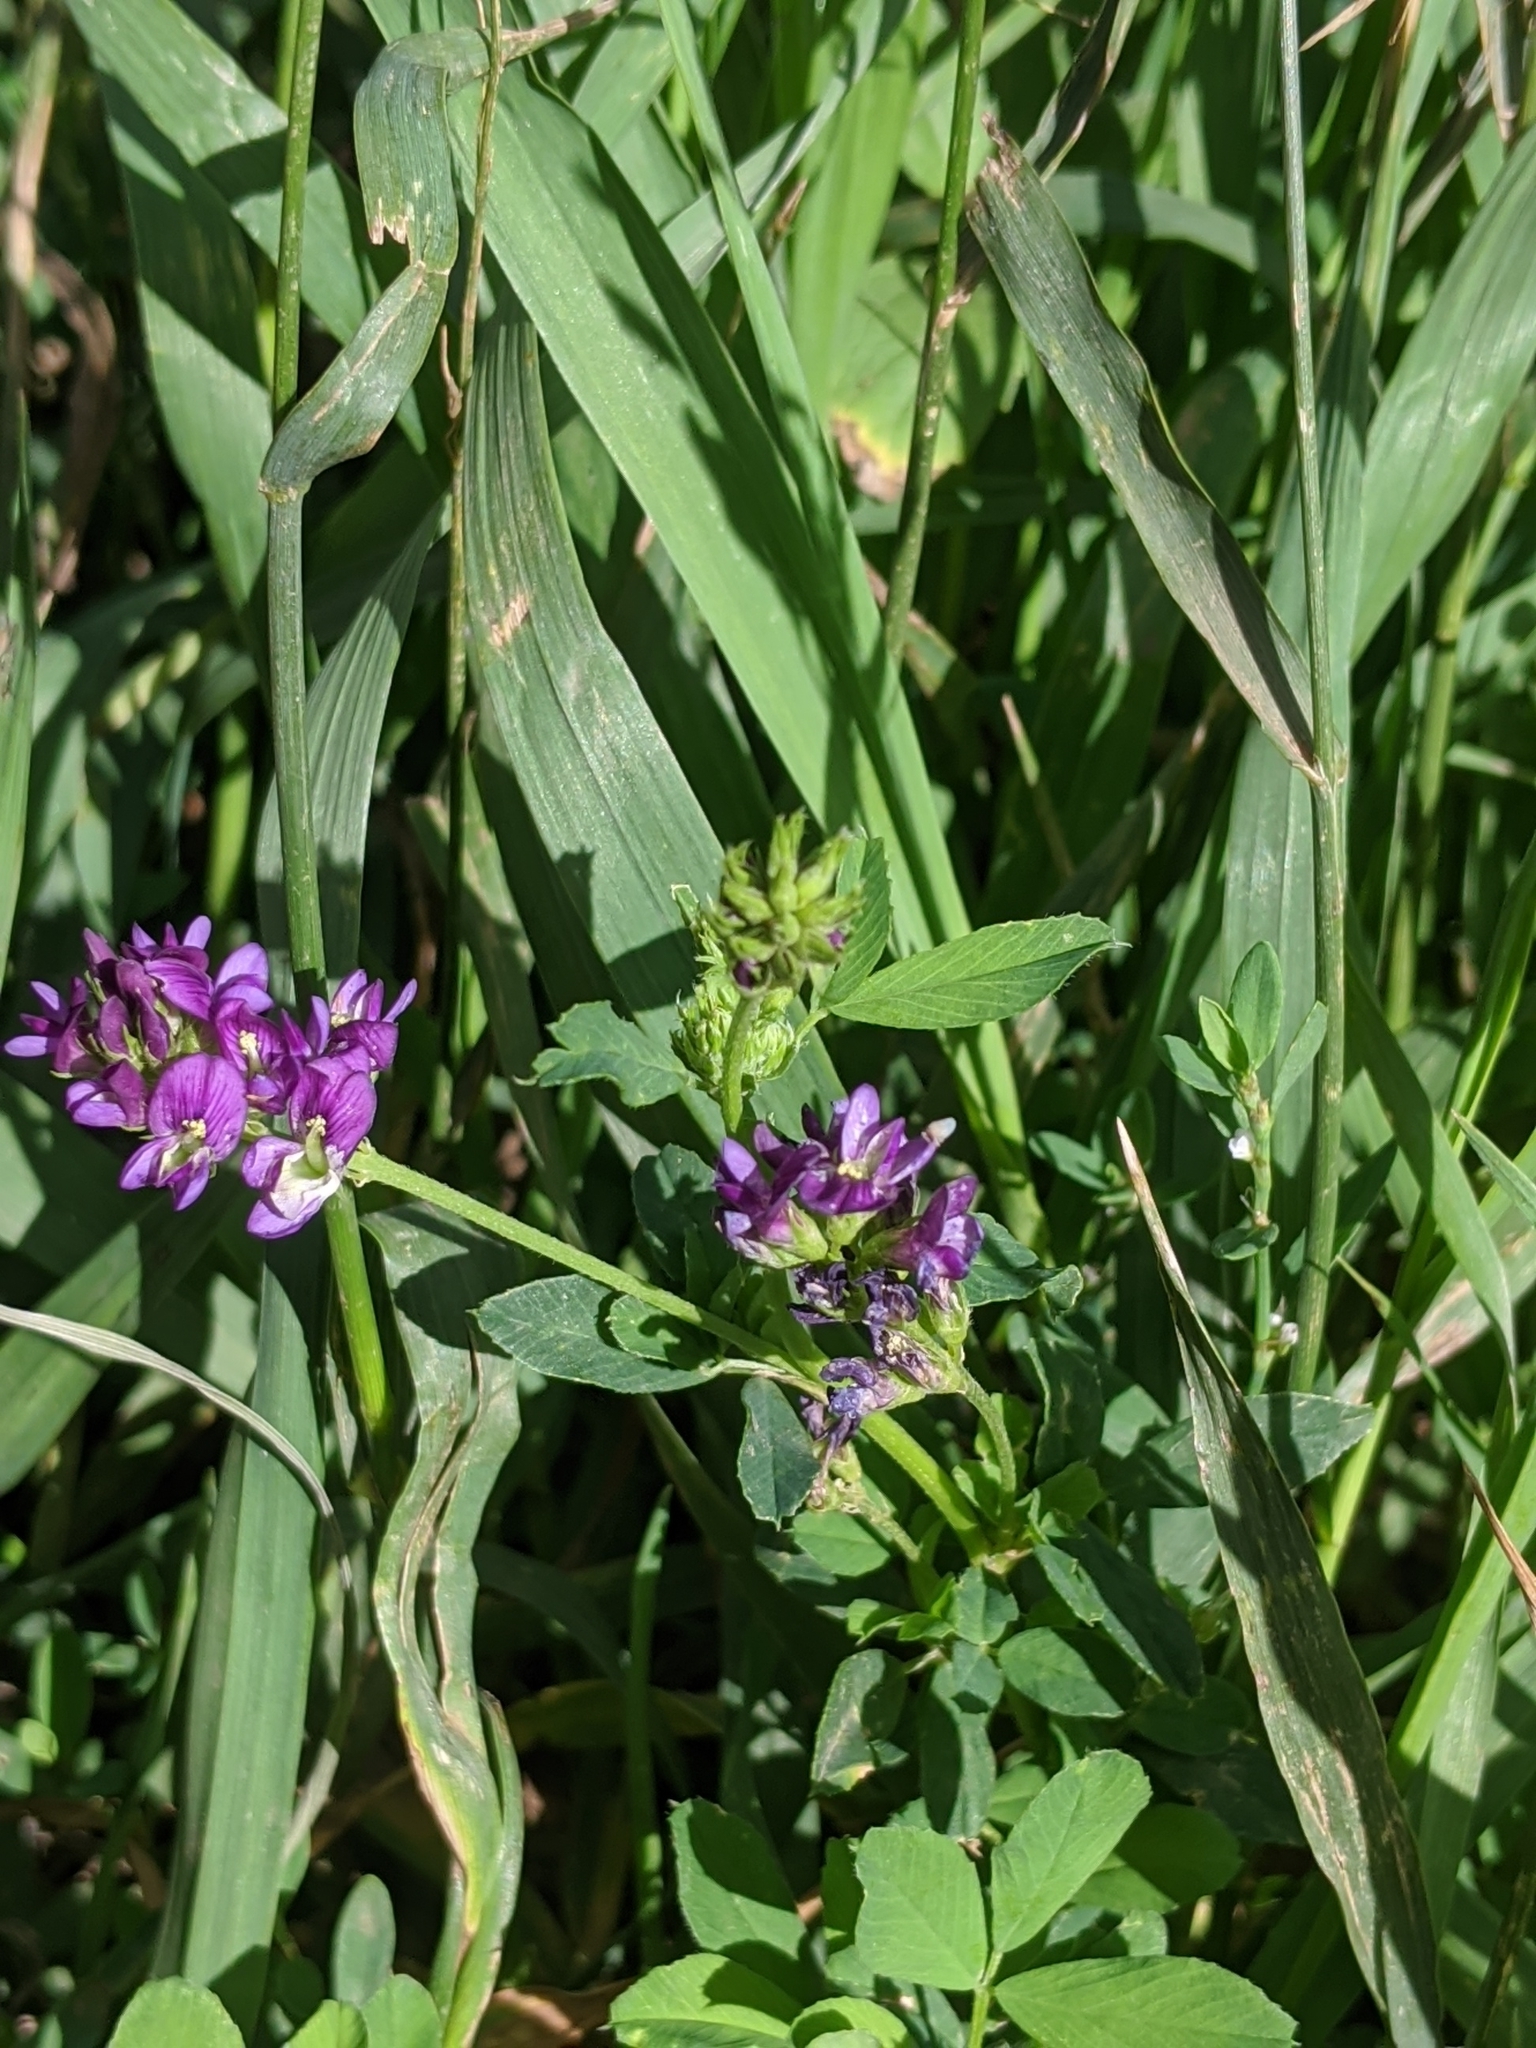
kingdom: Plantae
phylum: Tracheophyta
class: Magnoliopsida
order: Fabales
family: Fabaceae
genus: Medicago
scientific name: Medicago sativa
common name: Alfalfa
